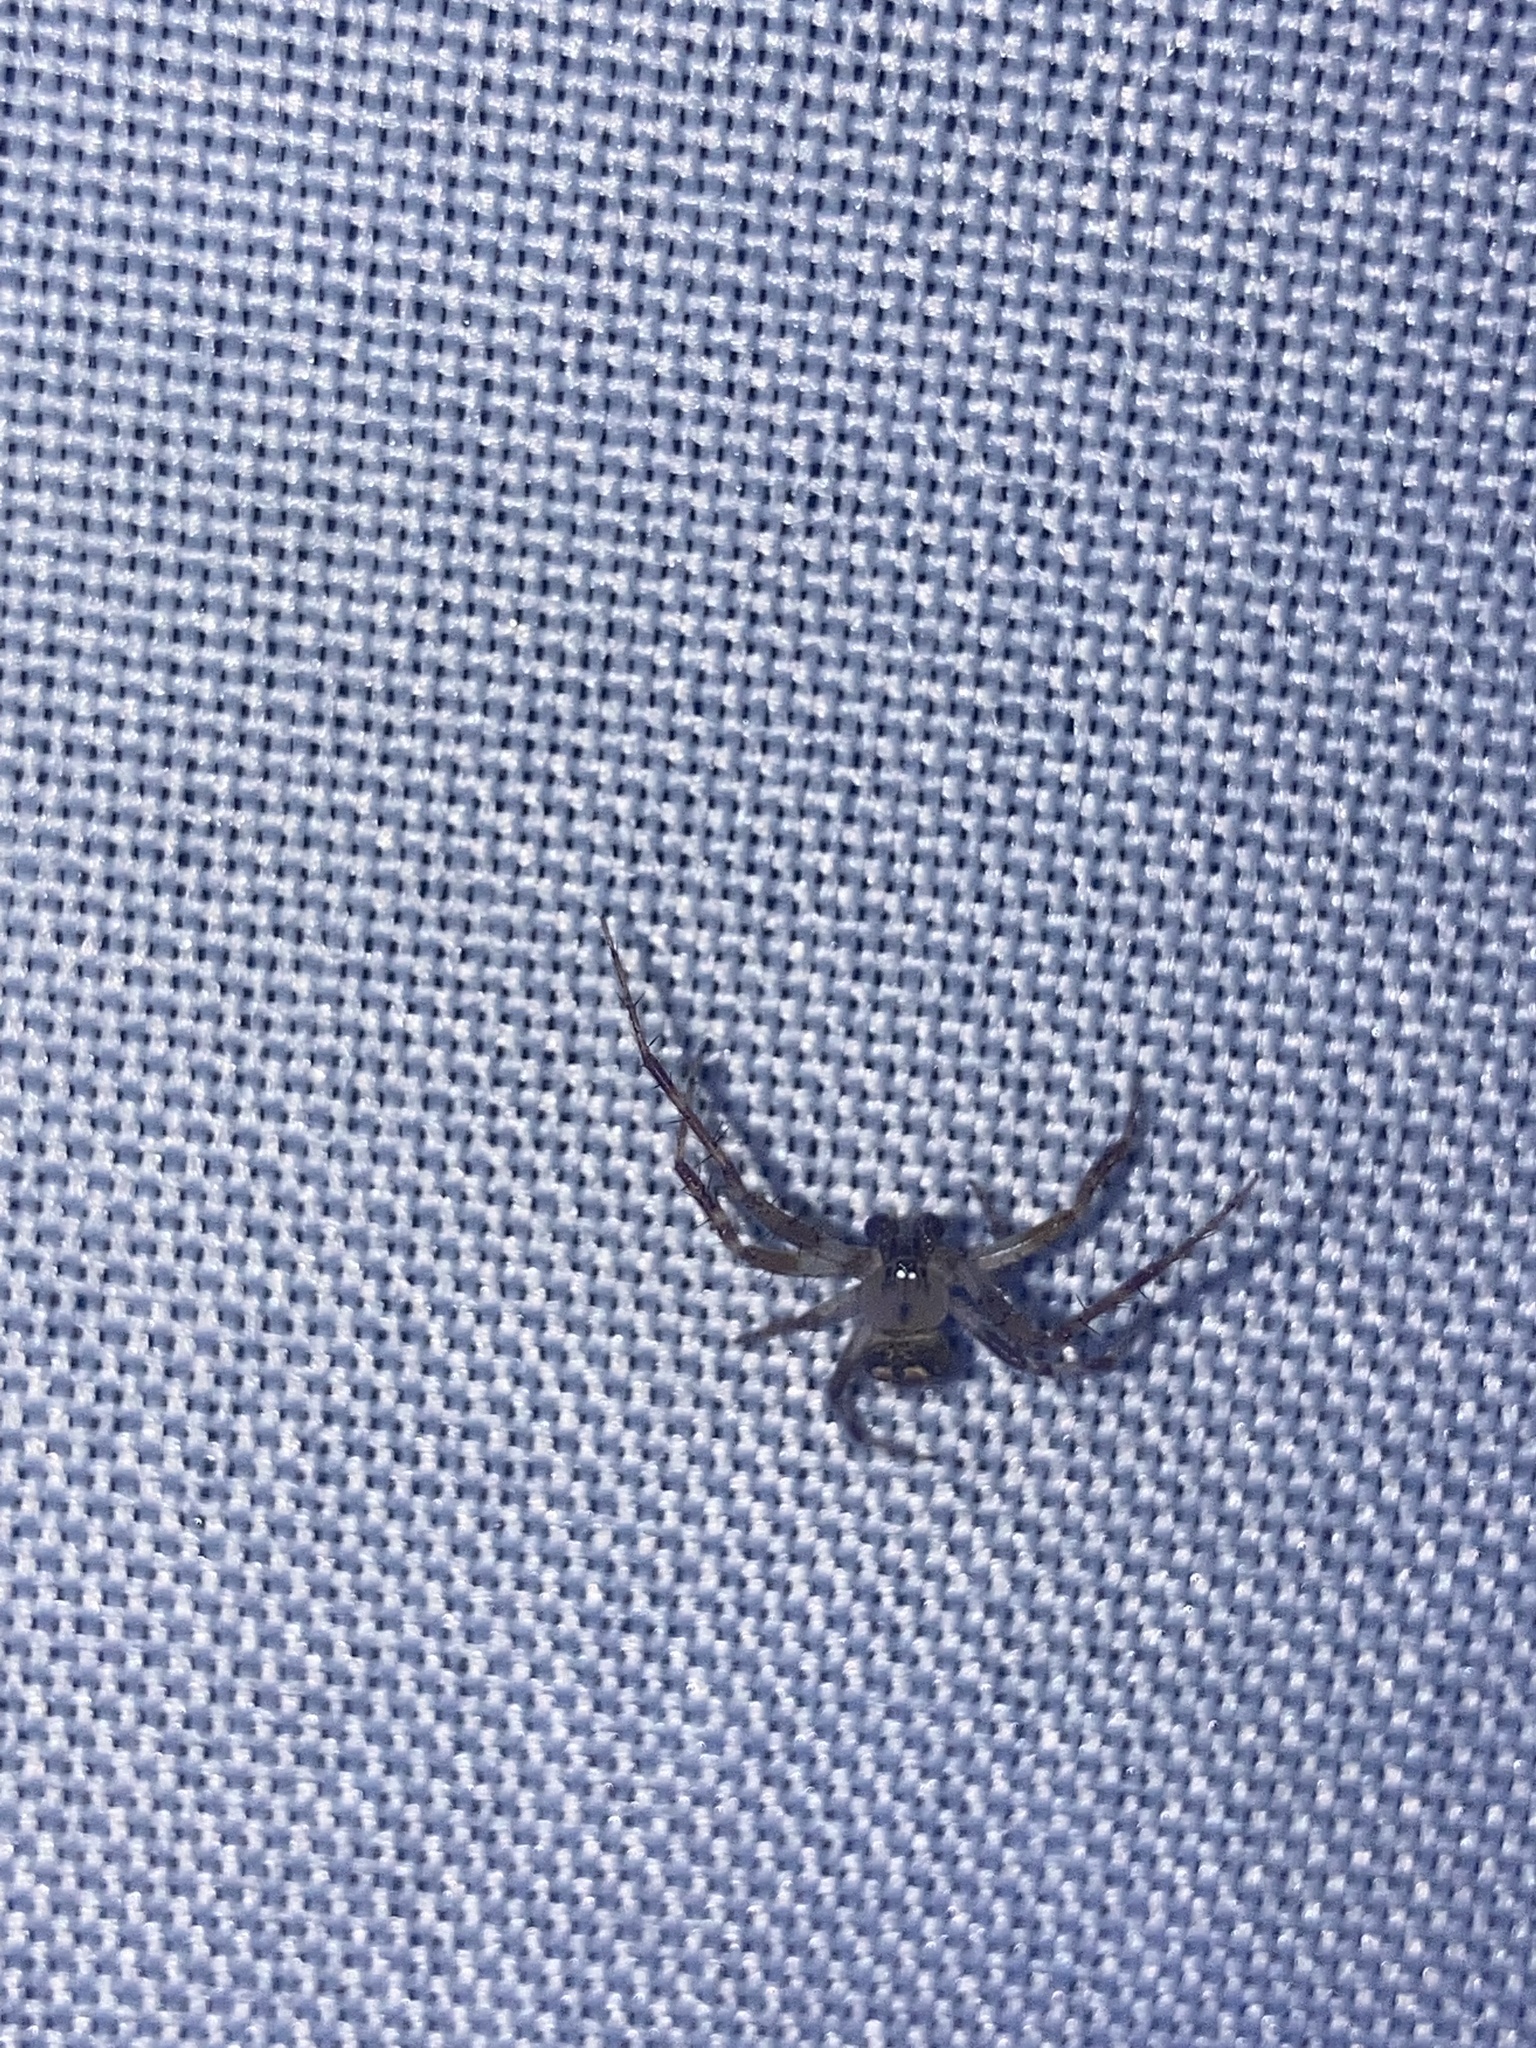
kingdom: Animalia
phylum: Arthropoda
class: Arachnida
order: Araneae
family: Araneidae
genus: Araneus
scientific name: Araneus pegnia
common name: Orb weavers
